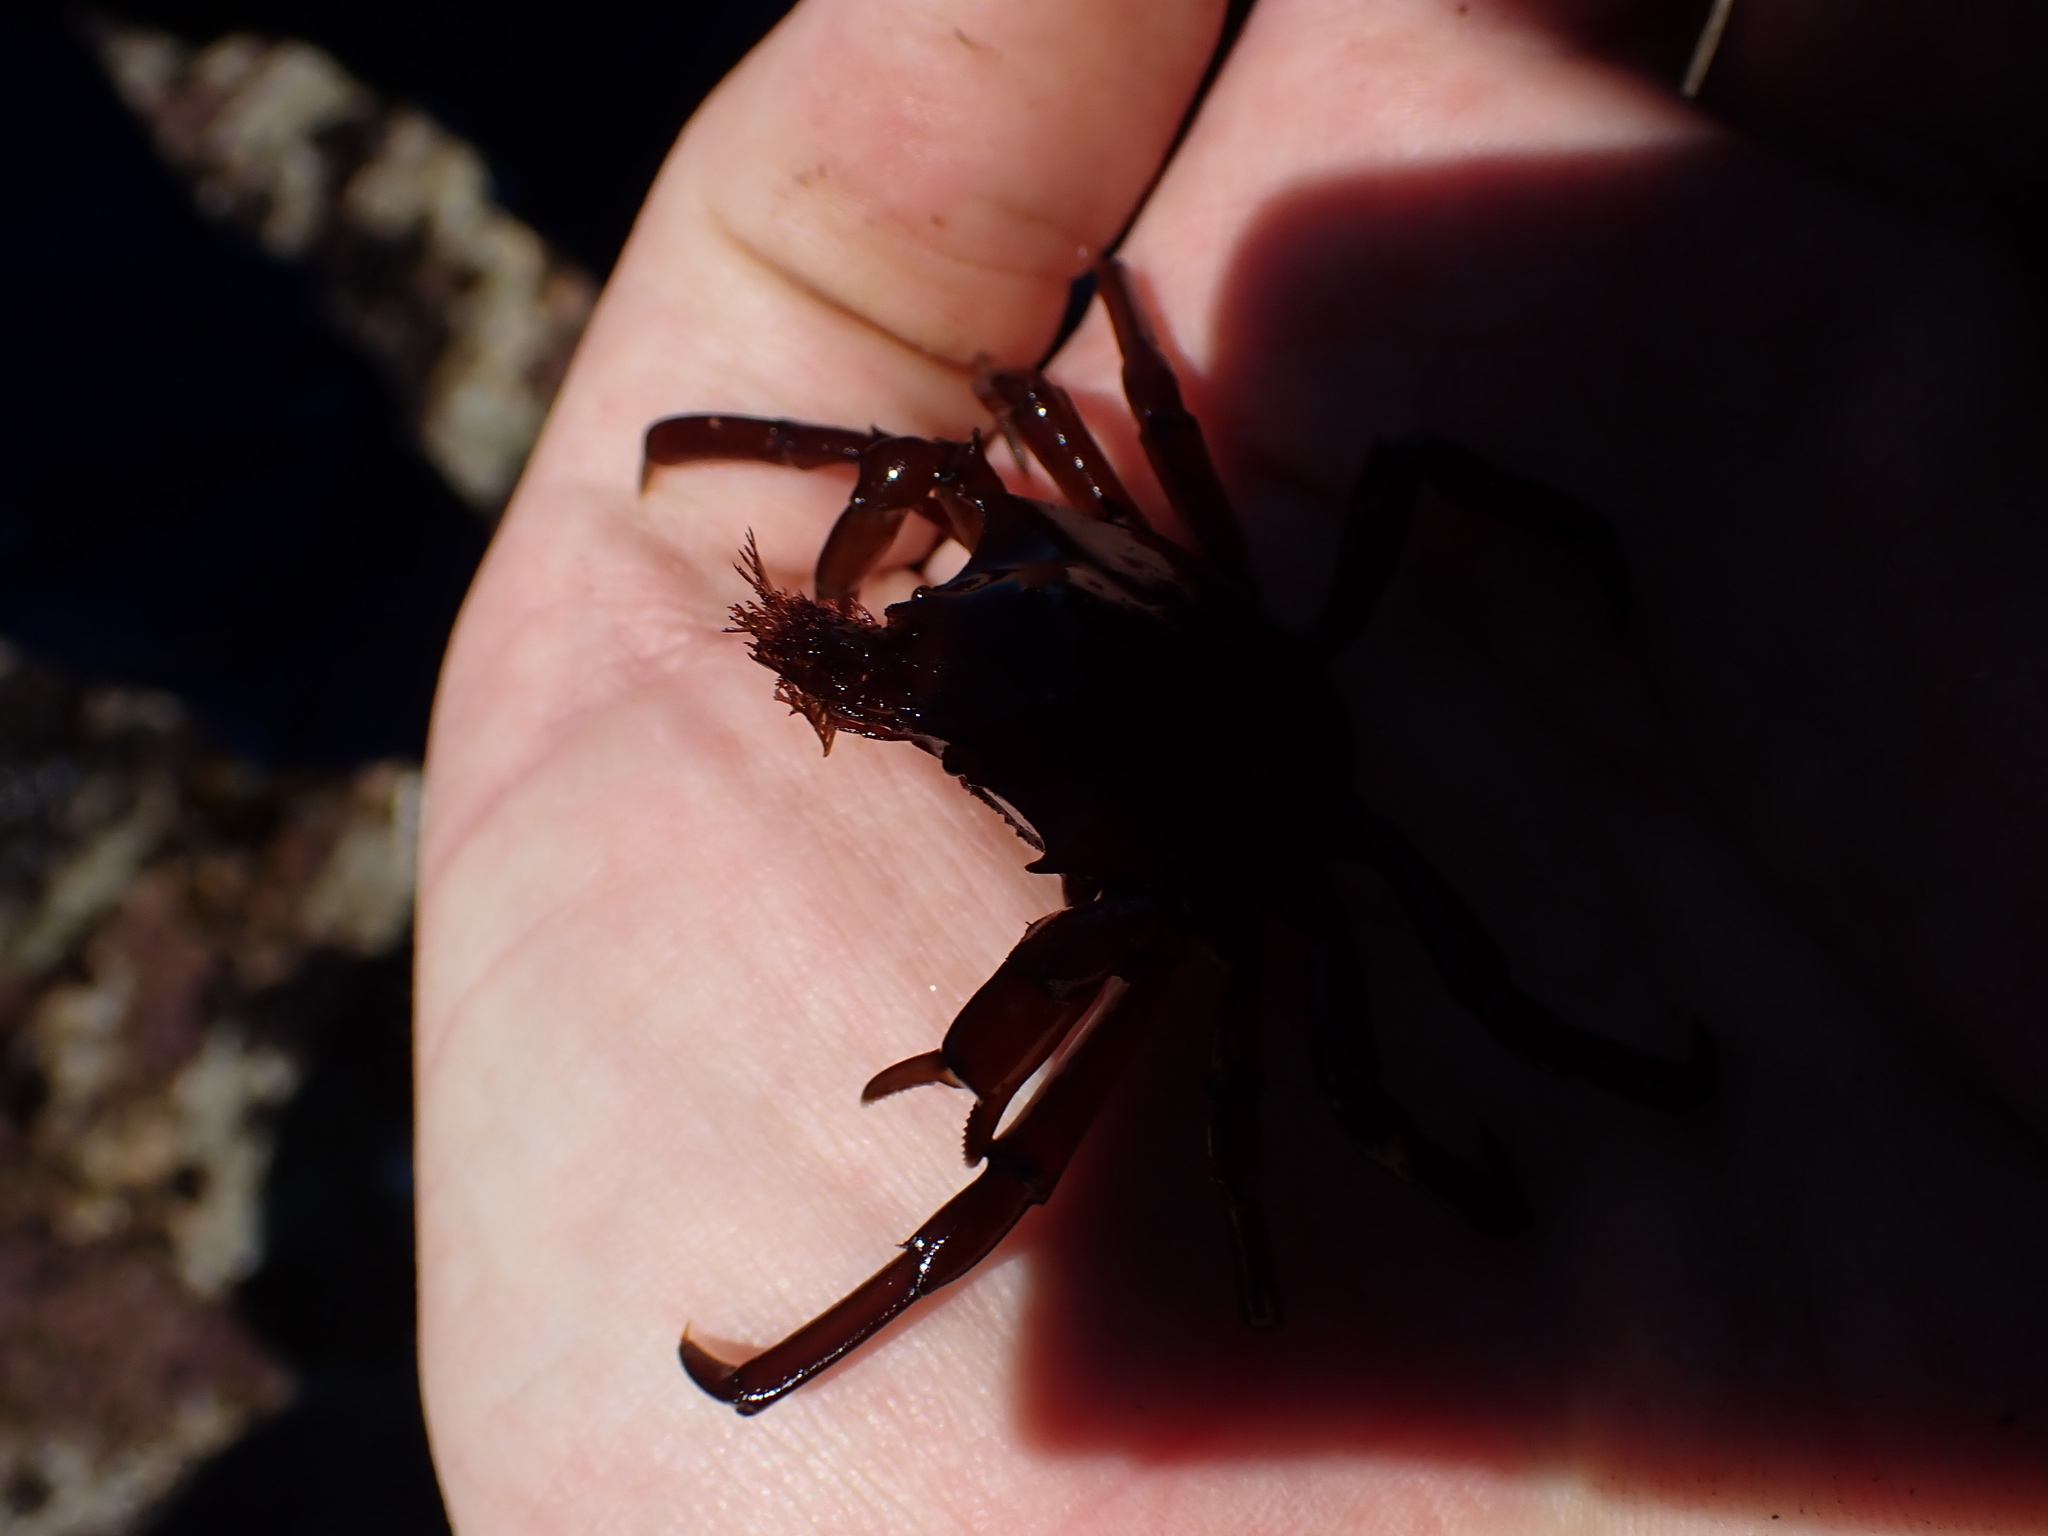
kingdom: Animalia
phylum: Arthropoda
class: Malacostraca
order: Decapoda
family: Epialtidae
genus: Pugettia
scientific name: Pugettia producta
